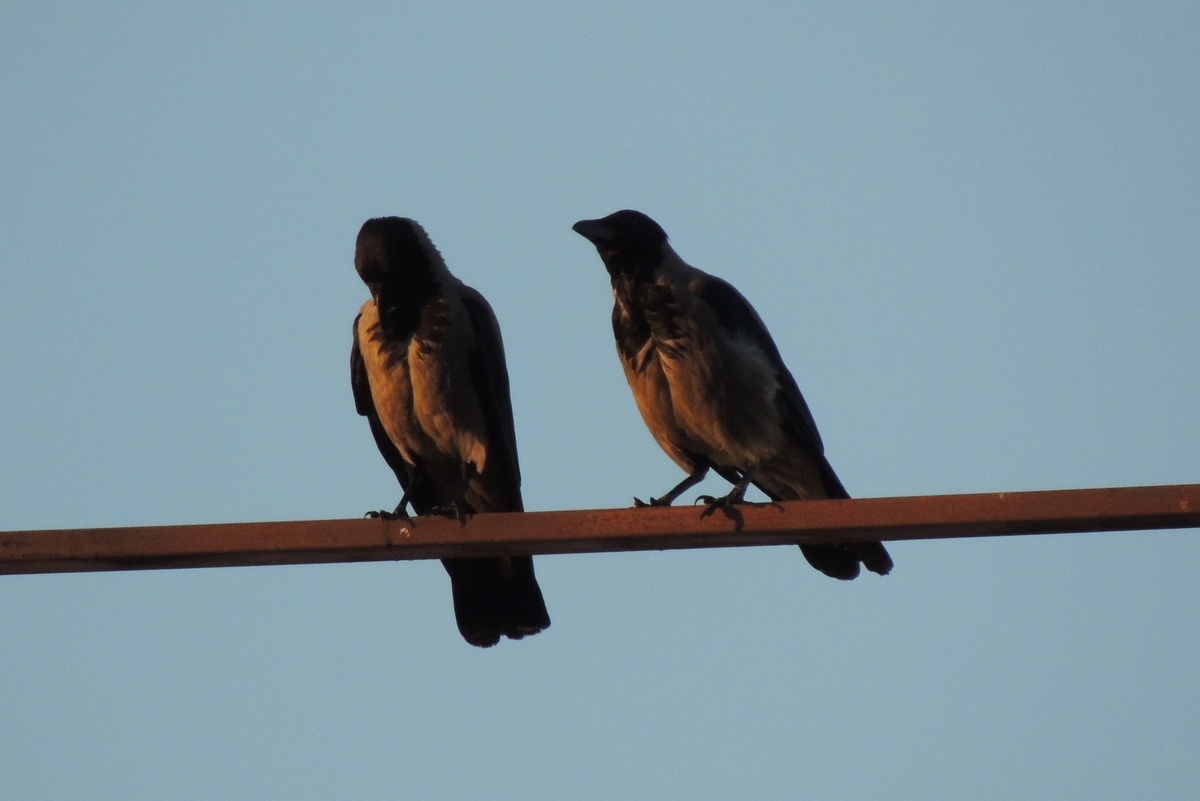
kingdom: Animalia
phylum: Chordata
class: Aves
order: Passeriformes
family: Corvidae
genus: Corvus
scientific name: Corvus cornix
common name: Hooded crow
